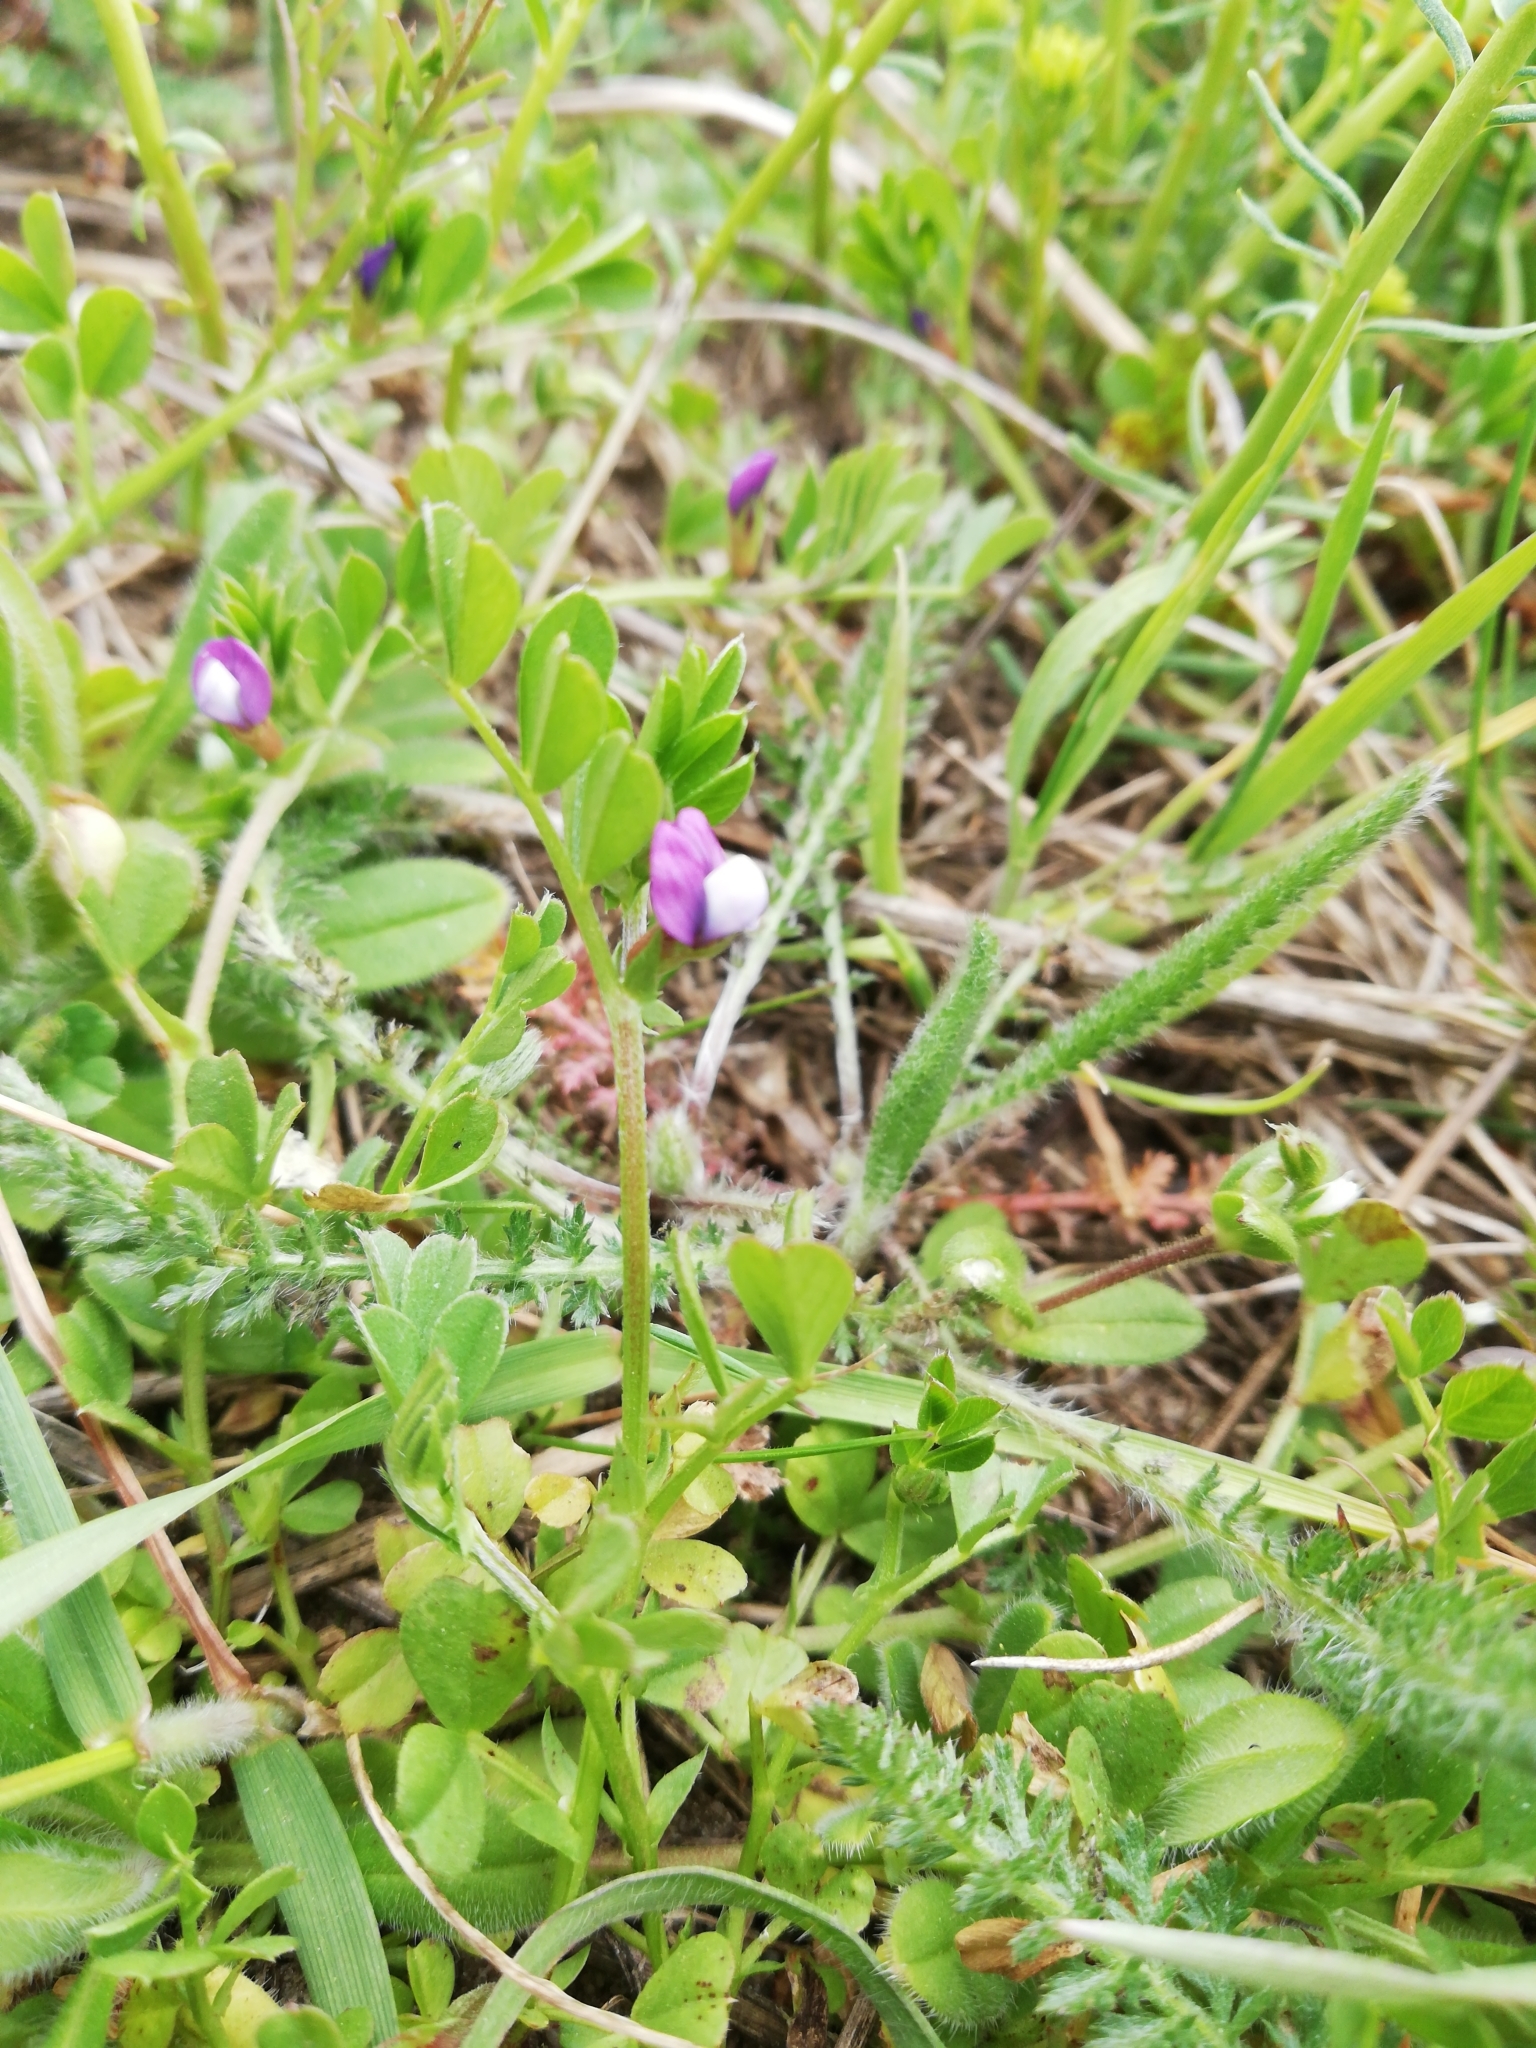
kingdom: Plantae
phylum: Tracheophyta
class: Magnoliopsida
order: Fabales
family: Fabaceae
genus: Vicia
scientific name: Vicia lathyroides
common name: Spring vetch
